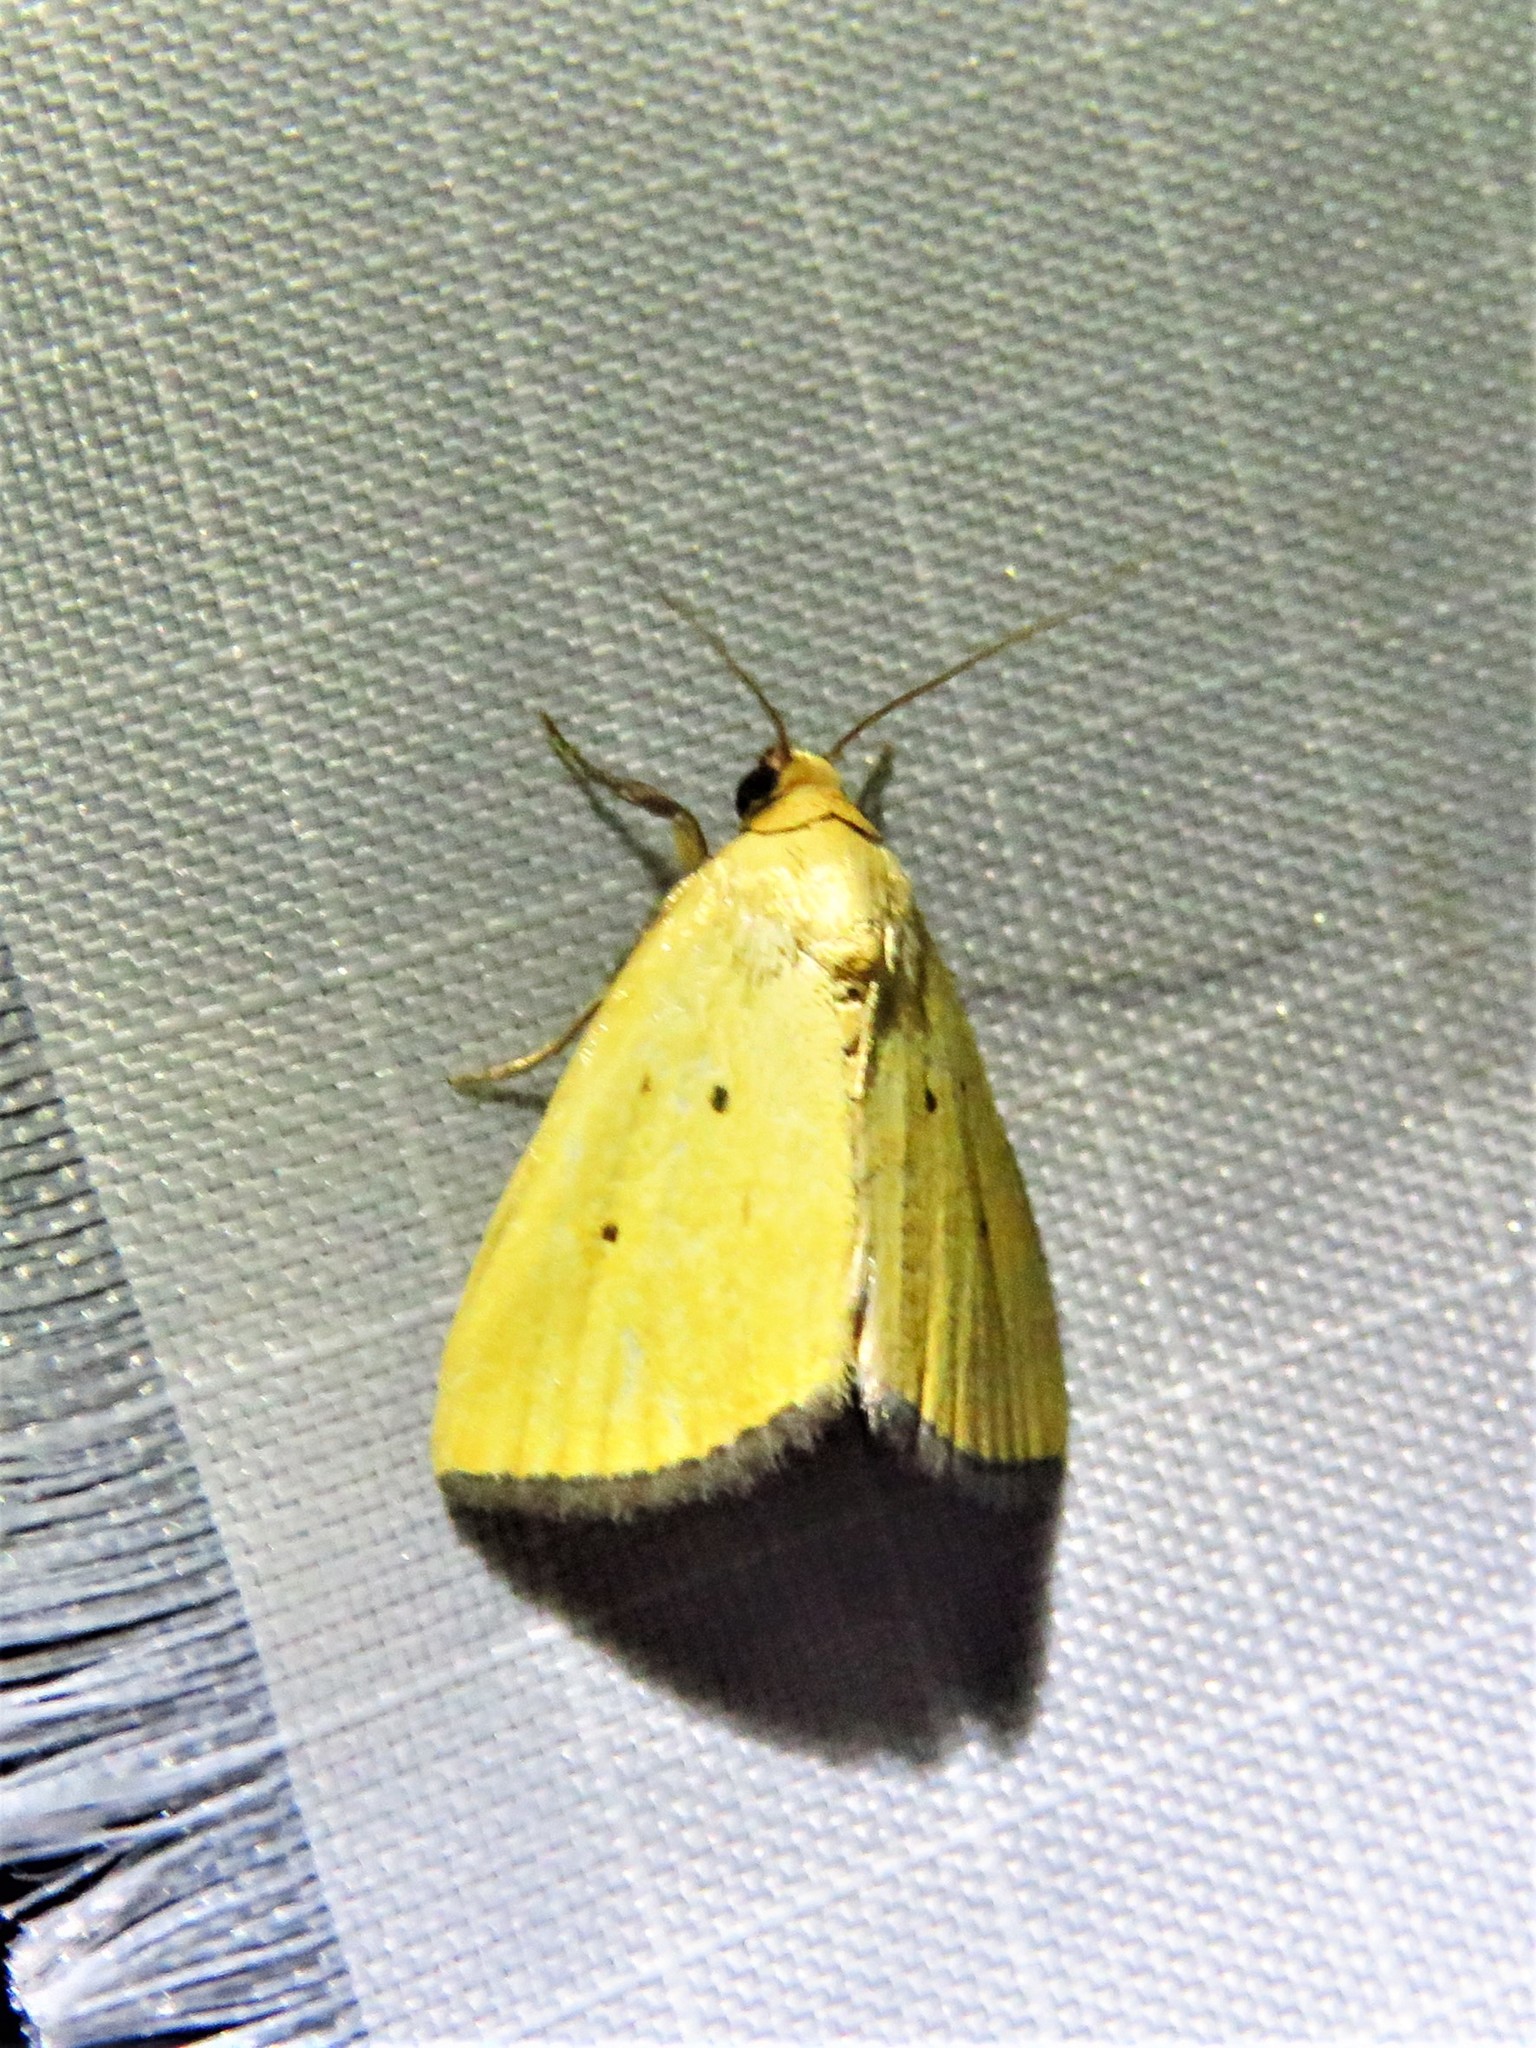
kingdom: Animalia
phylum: Arthropoda
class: Insecta
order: Lepidoptera
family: Noctuidae
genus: Marimatha
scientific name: Marimatha nigrofimbria
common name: Black-bordered lemon moth
